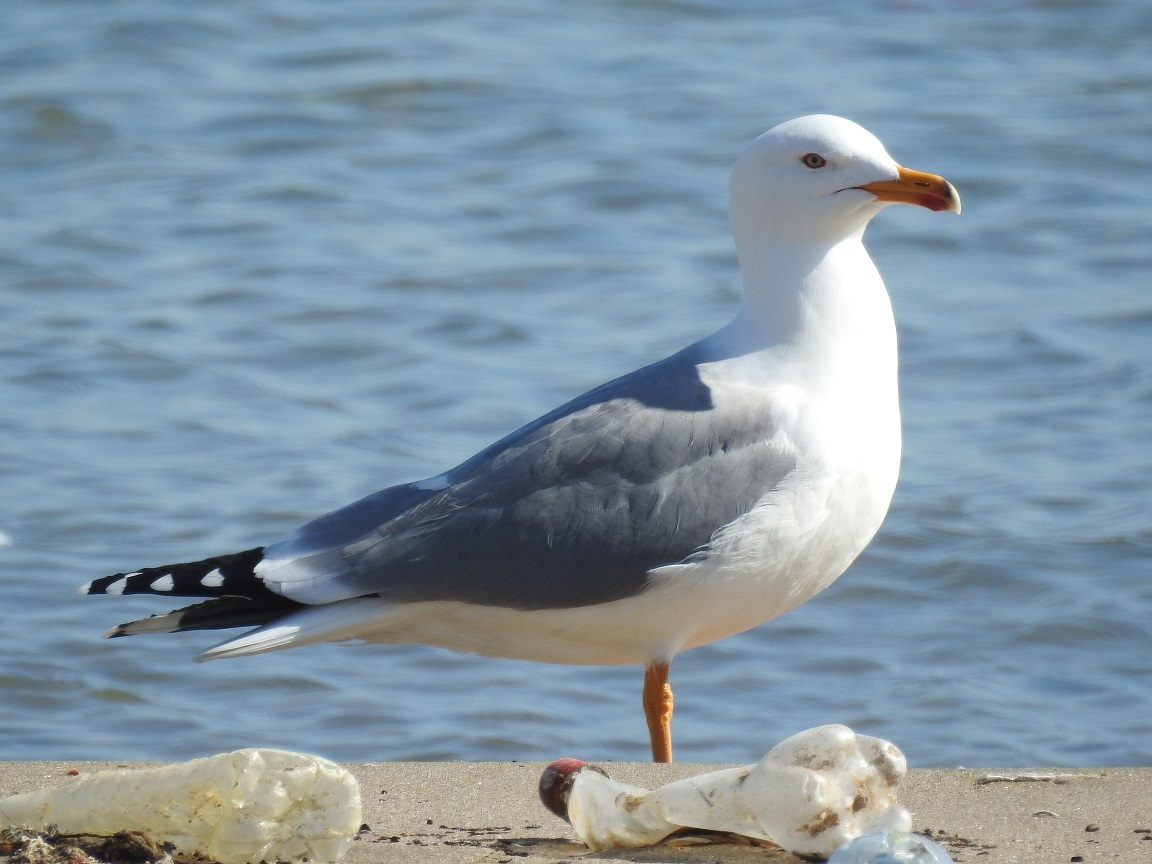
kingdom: Animalia
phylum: Chordata
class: Aves
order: Charadriiformes
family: Laridae
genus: Larus
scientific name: Larus michahellis
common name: Yellow-legged gull
